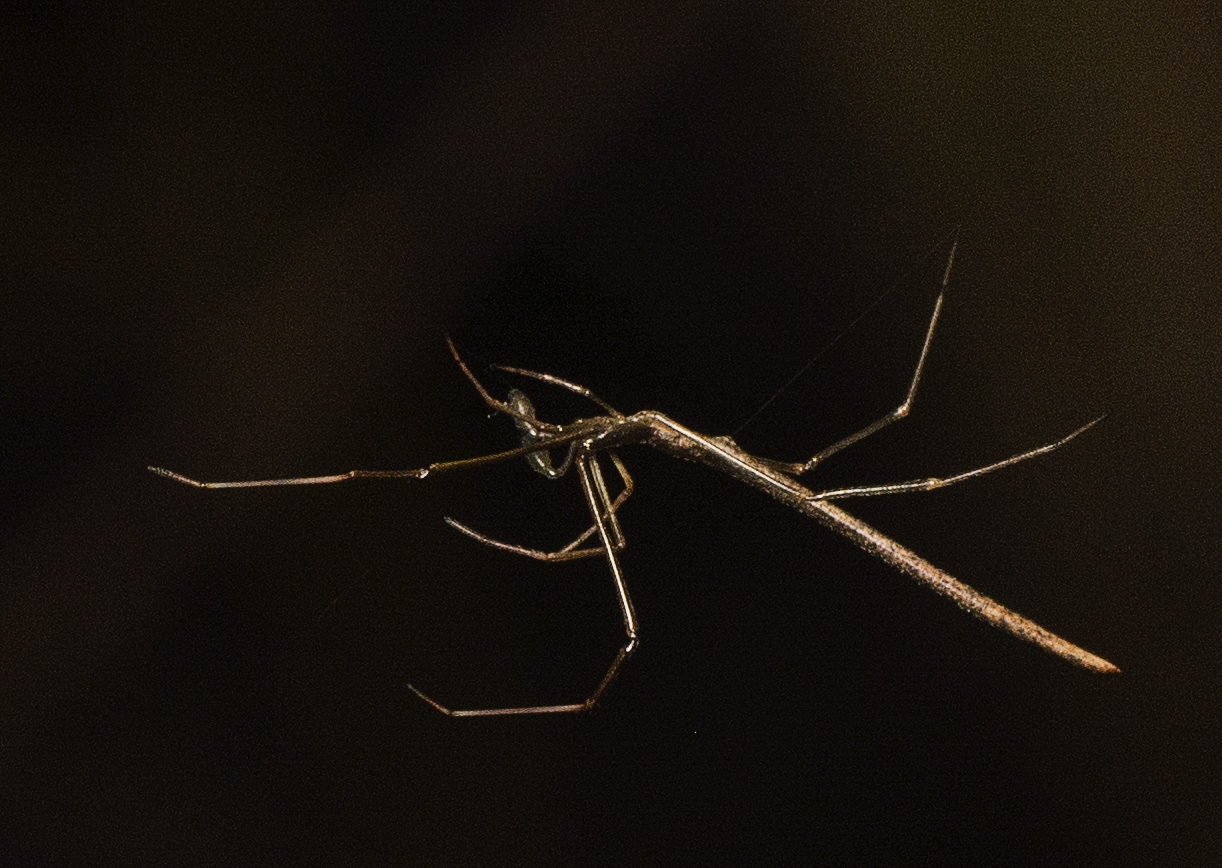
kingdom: Animalia
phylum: Arthropoda
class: Arachnida
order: Araneae
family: Theridiidae
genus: Ariamnes
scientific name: Ariamnes colubrinus
